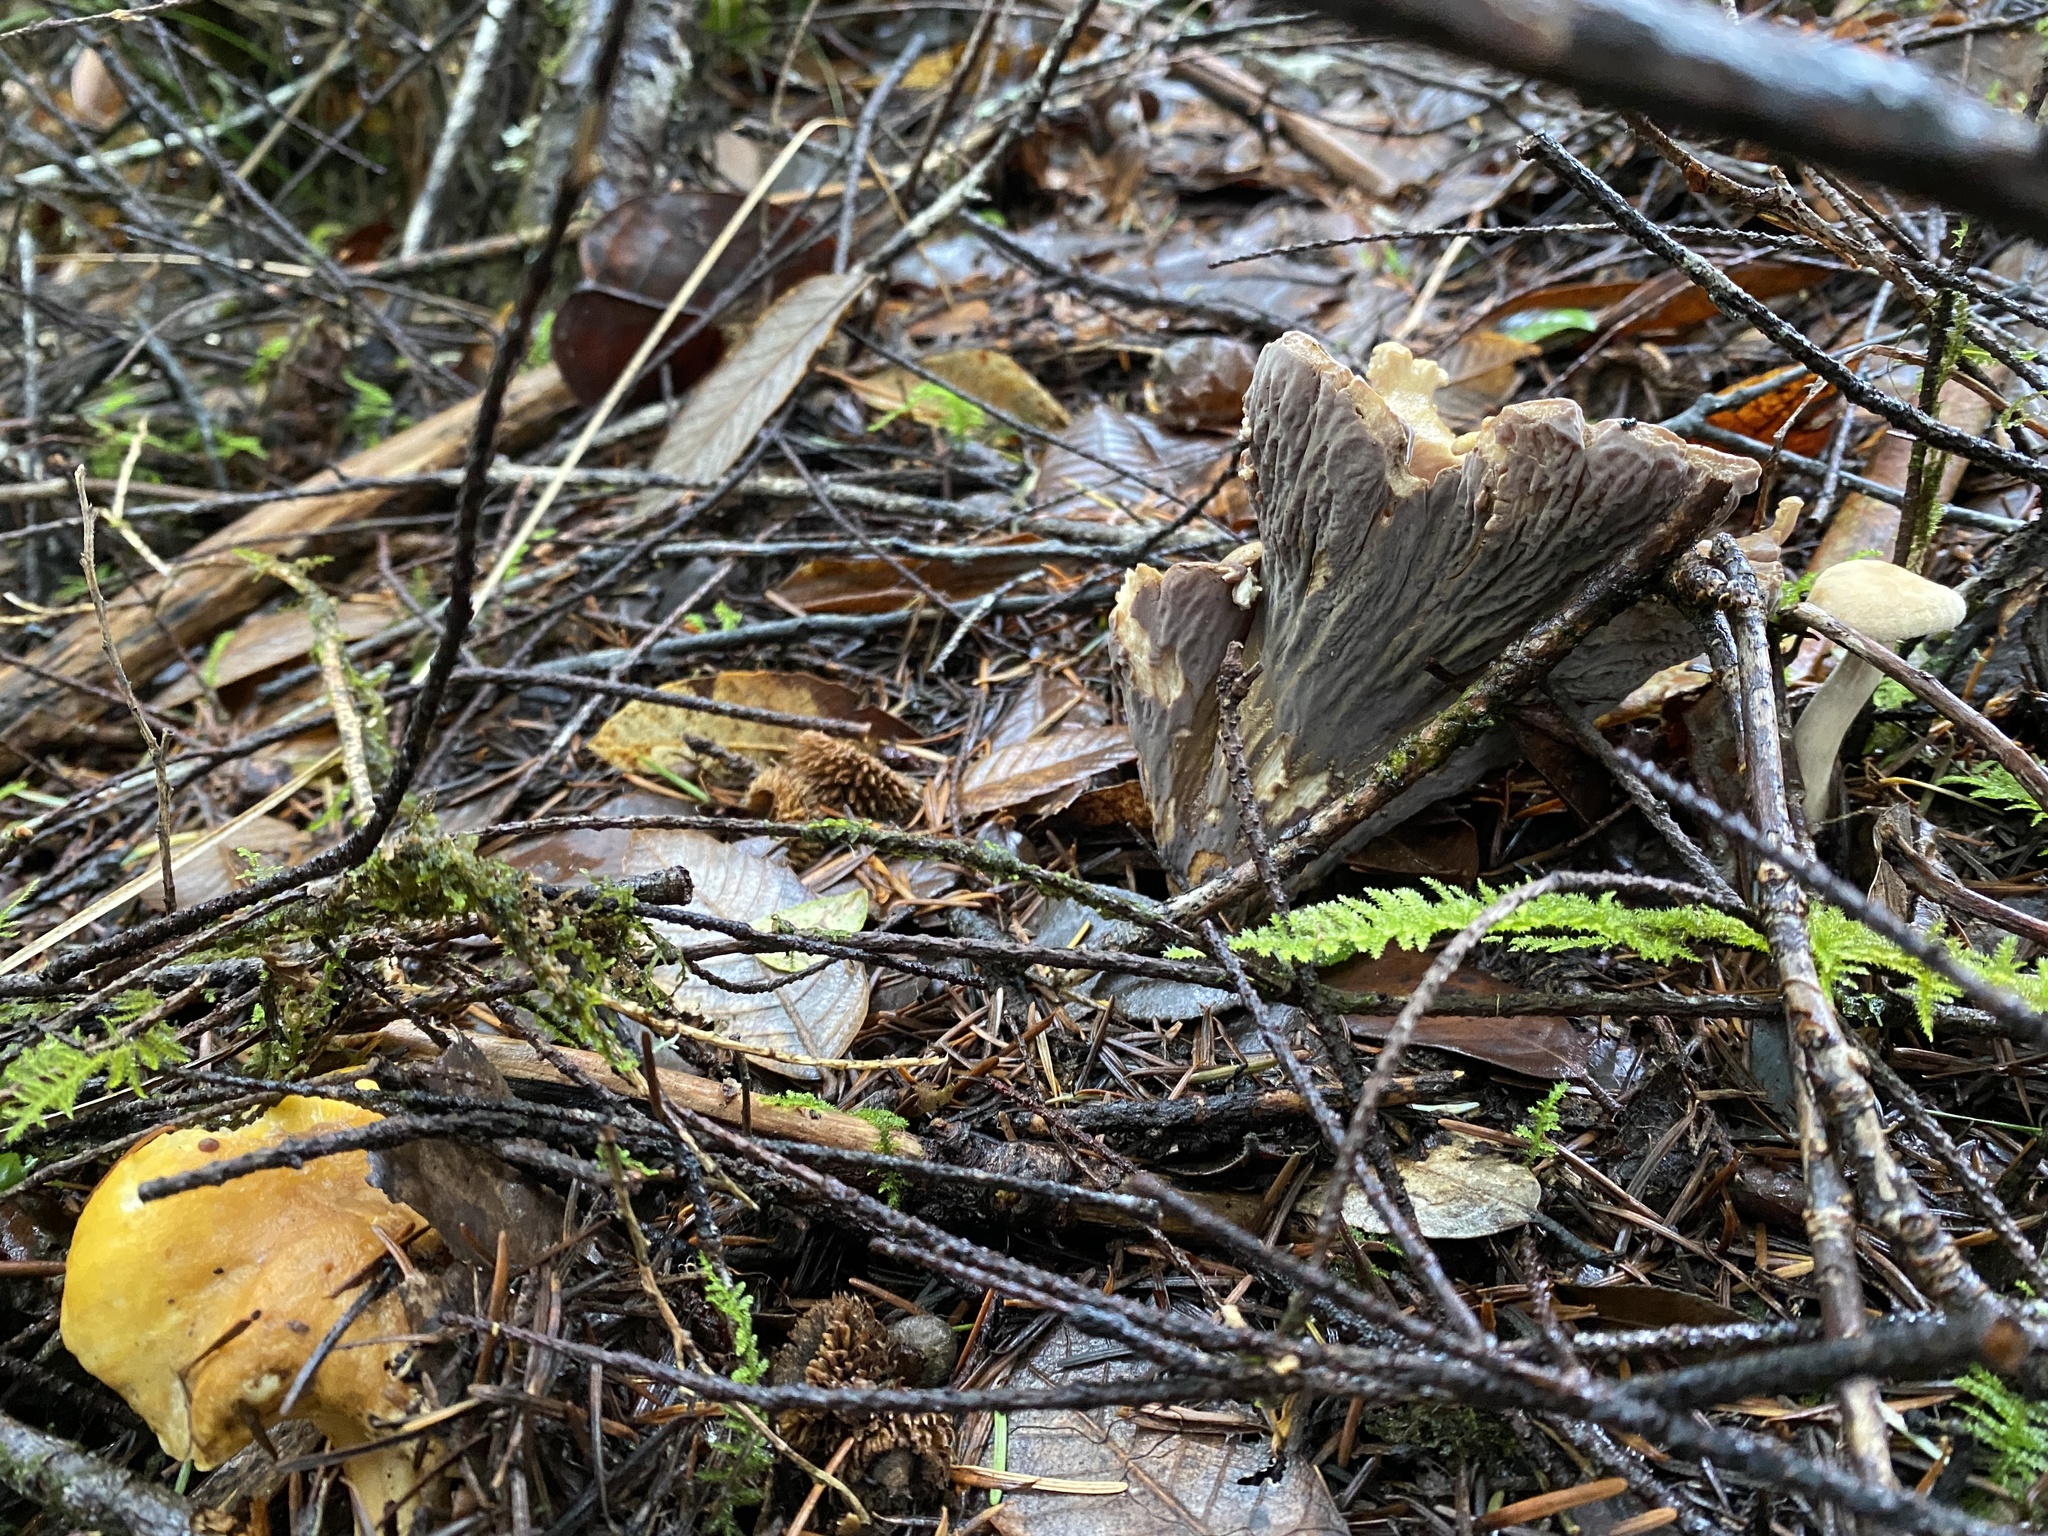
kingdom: Fungi
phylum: Basidiomycota
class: Agaricomycetes
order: Gomphales
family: Gomphaceae
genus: Gomphus
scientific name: Gomphus clavatus
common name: Pig's ear
